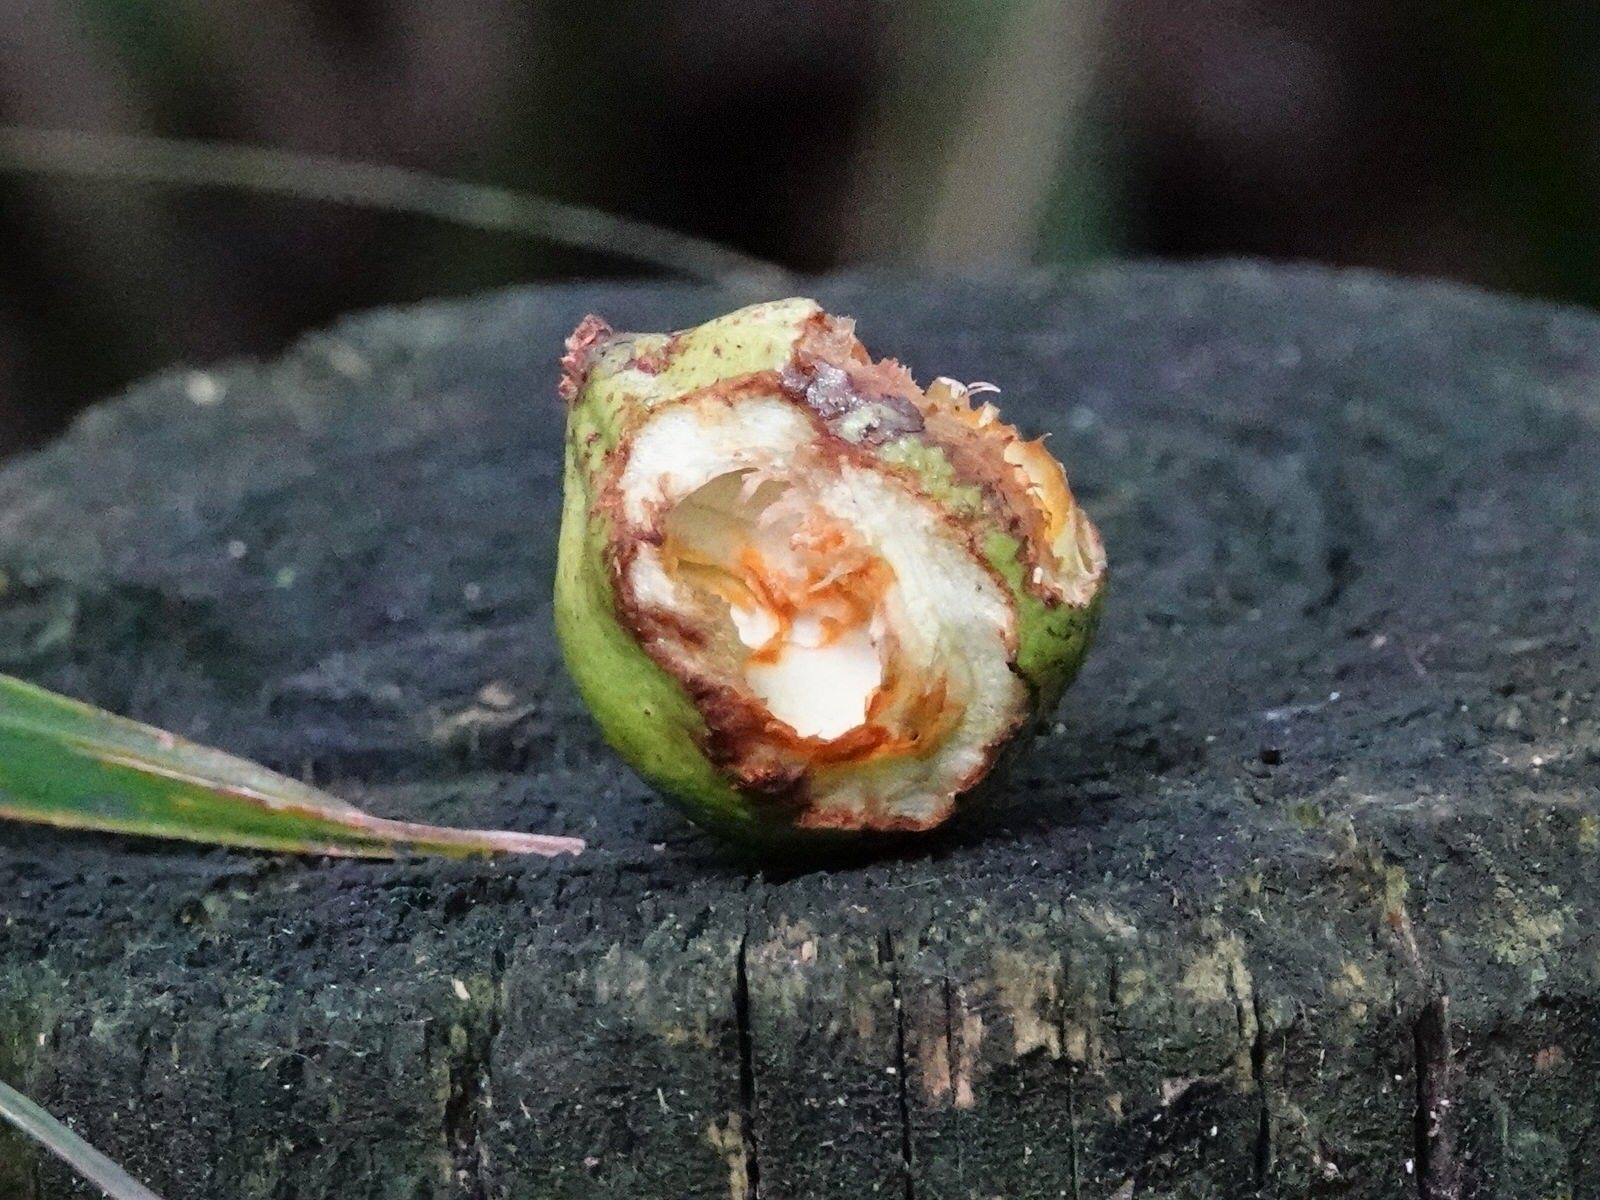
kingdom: Plantae
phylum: Tracheophyta
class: Magnoliopsida
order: Sapindales
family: Meliaceae
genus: Didymocheton
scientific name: Didymocheton spectabilis
